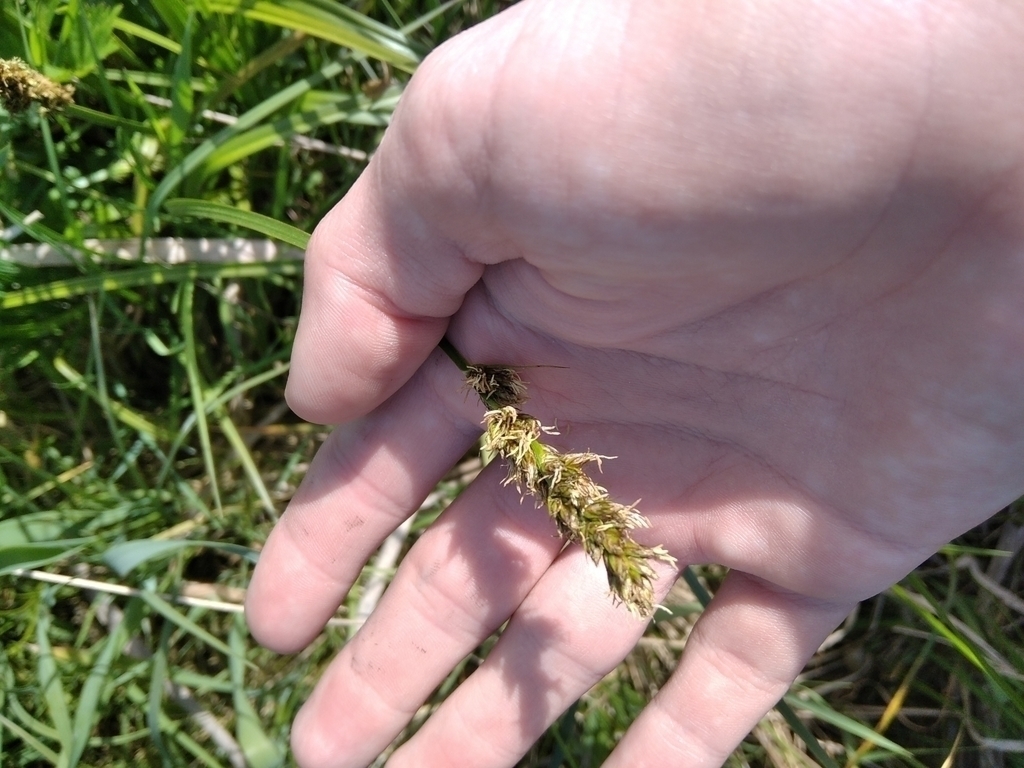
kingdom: Plantae
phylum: Tracheophyta
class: Liliopsida
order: Poales
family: Cyperaceae
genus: Carex
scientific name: Carex vulpina
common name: True fox-sedge
